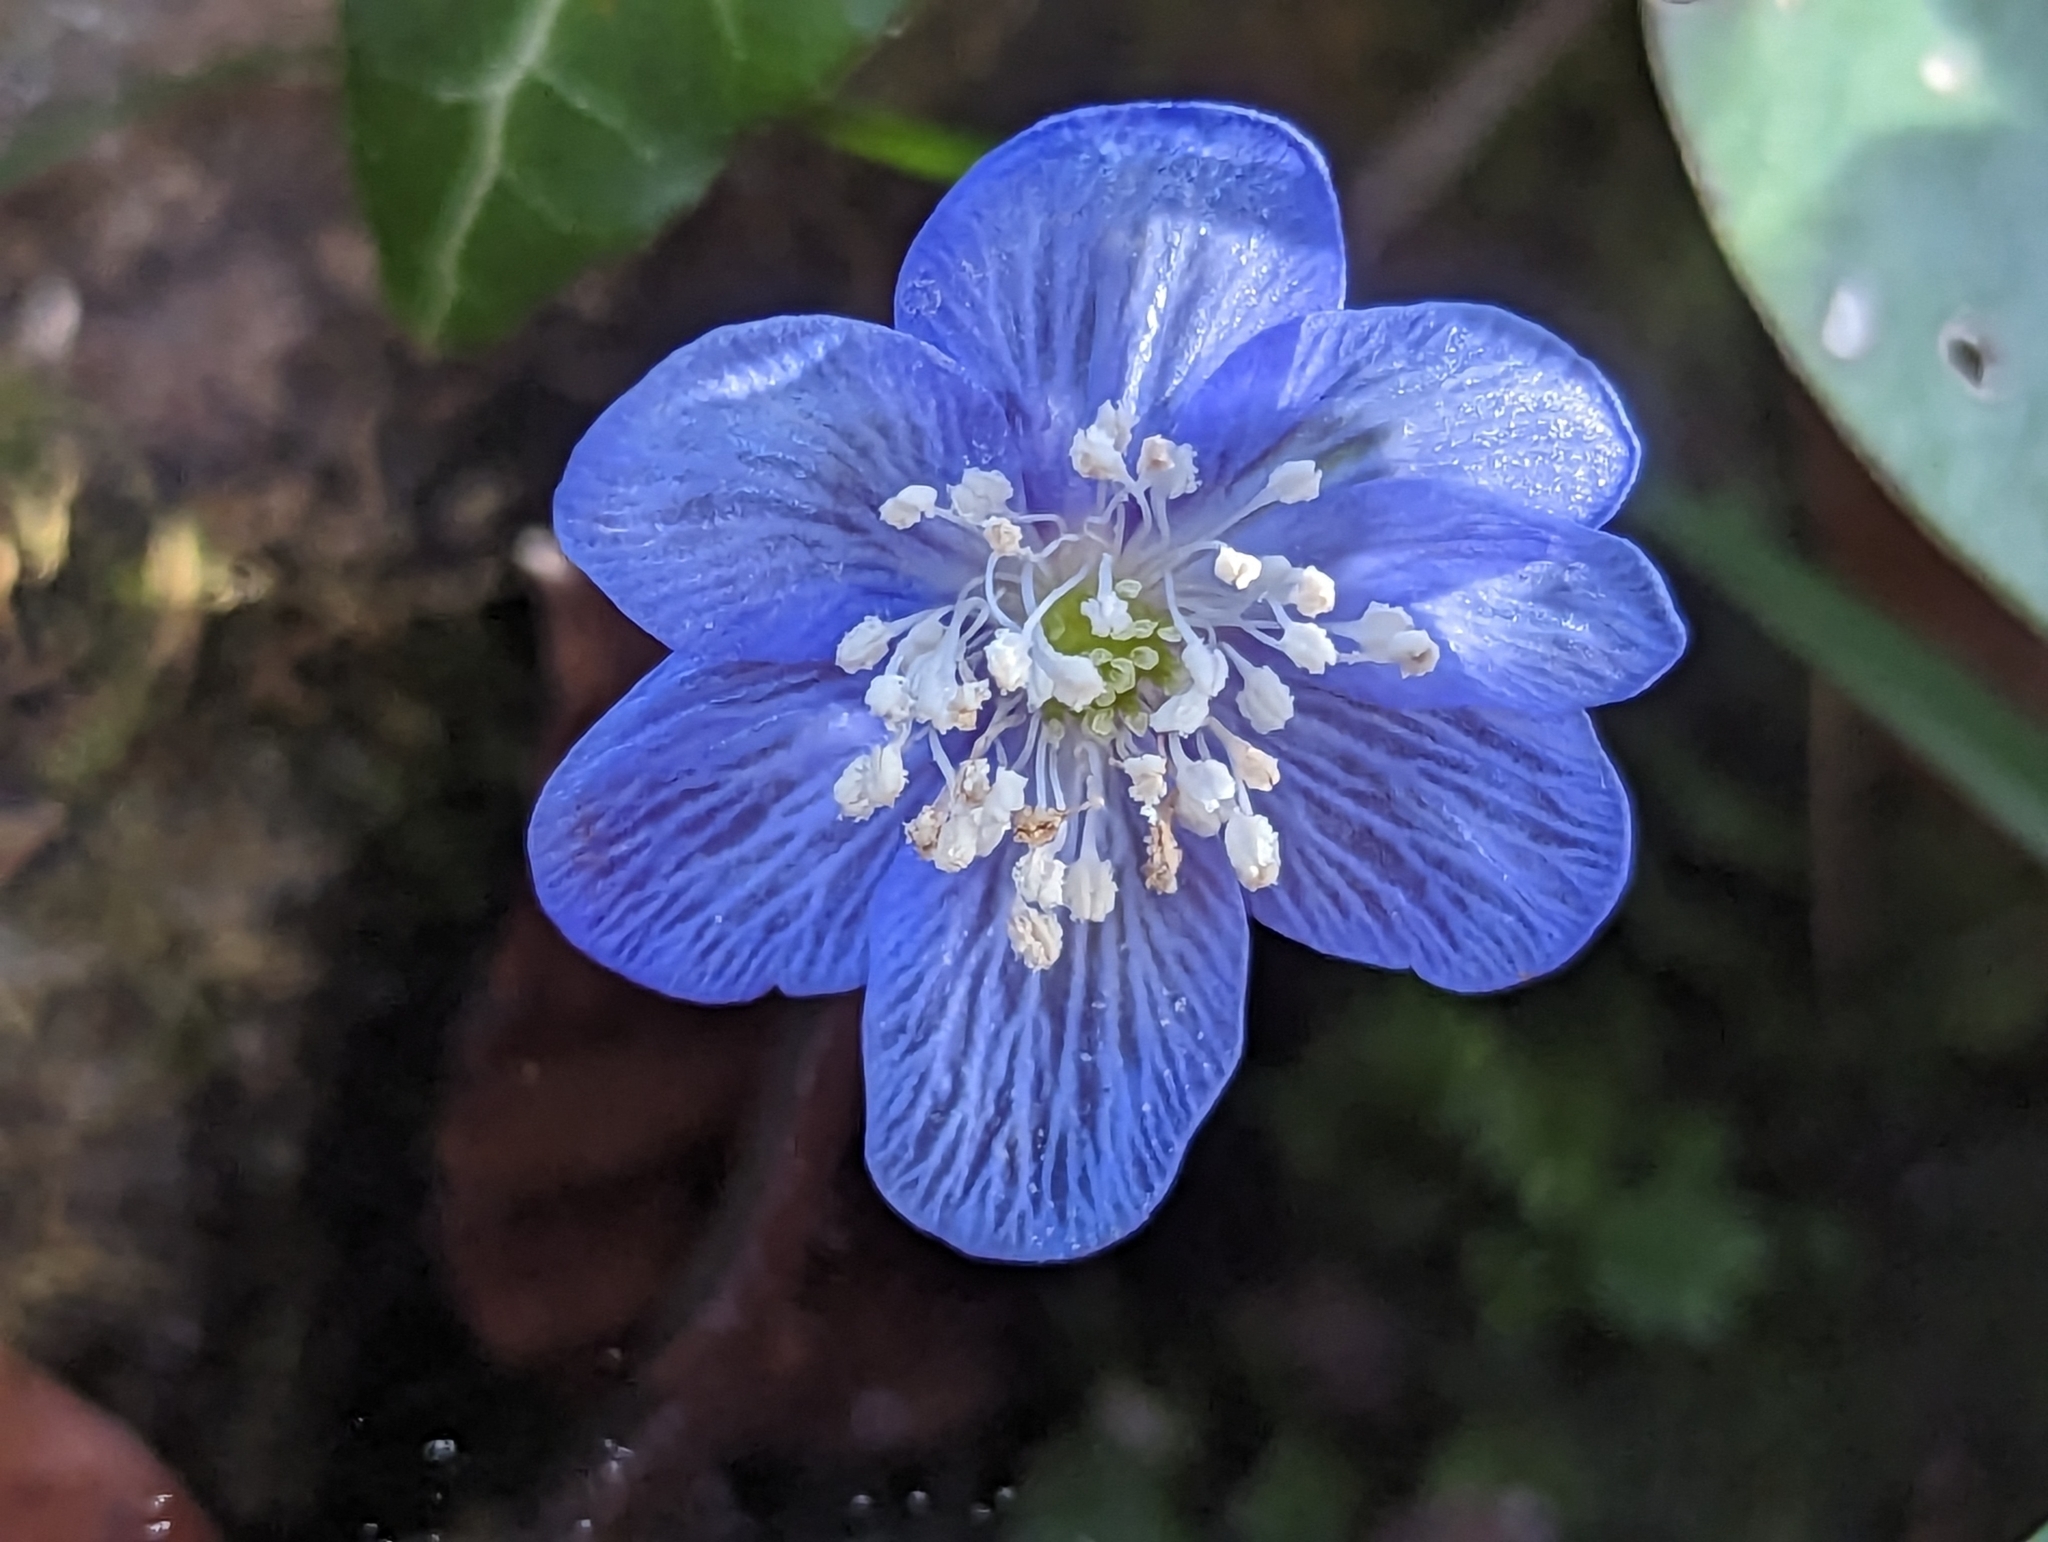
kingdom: Plantae
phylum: Tracheophyta
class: Magnoliopsida
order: Ranunculales
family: Ranunculaceae
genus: Hepatica
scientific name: Hepatica nobilis
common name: Liverleaf
